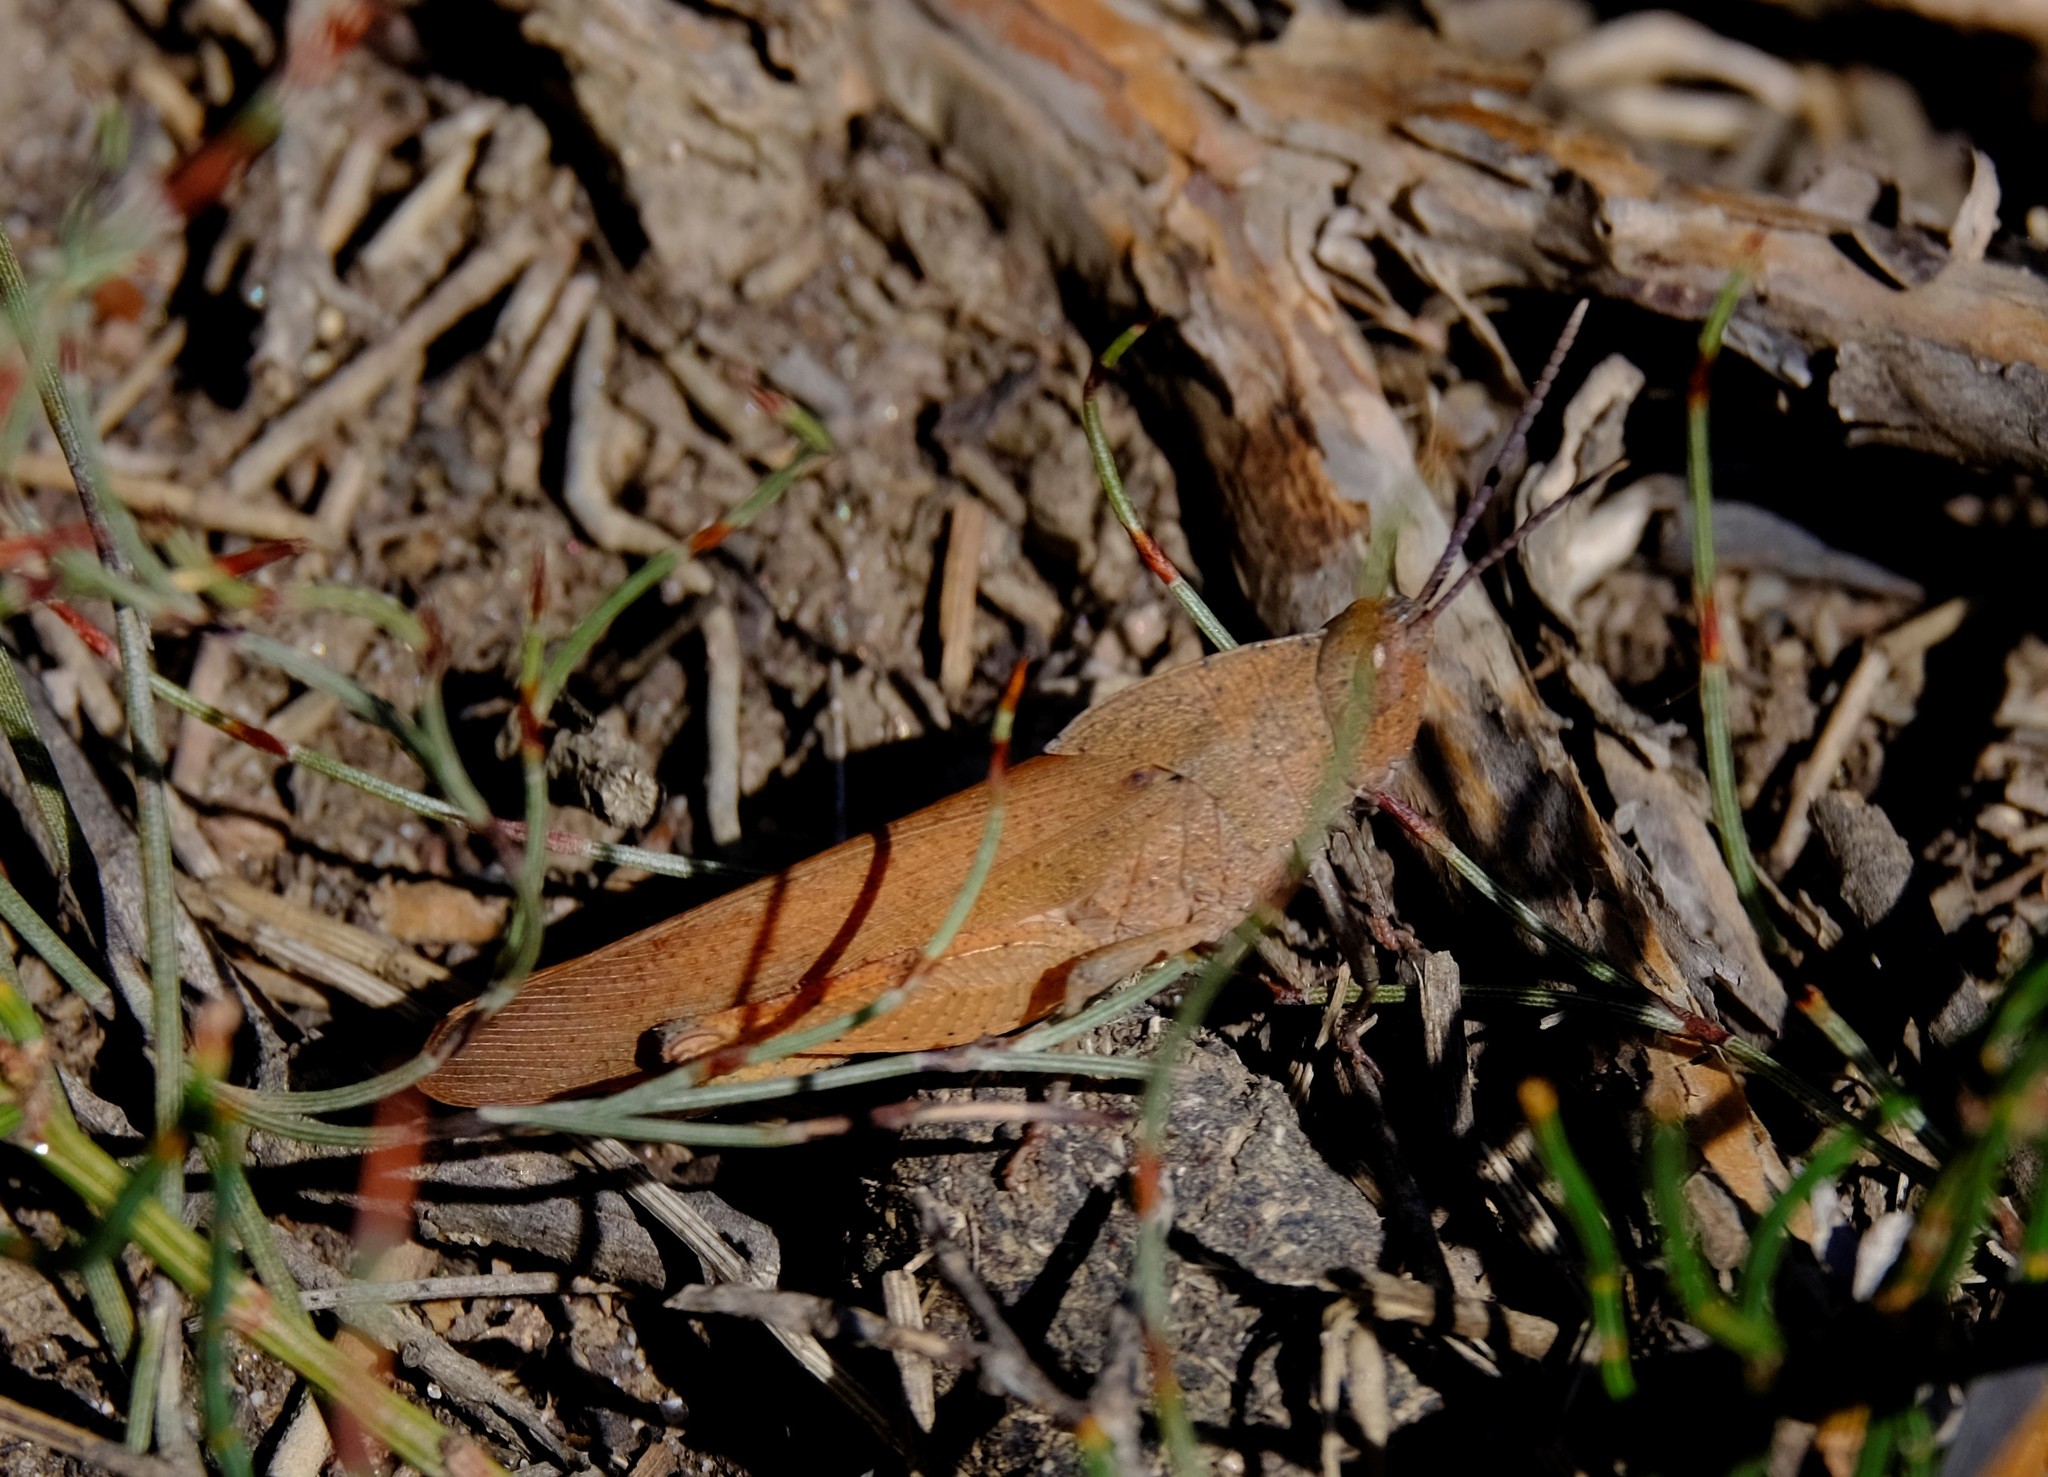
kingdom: Animalia
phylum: Arthropoda
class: Insecta
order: Orthoptera
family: Acrididae
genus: Goniaea
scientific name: Goniaea australasiae
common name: Gumleaf grasshopper
